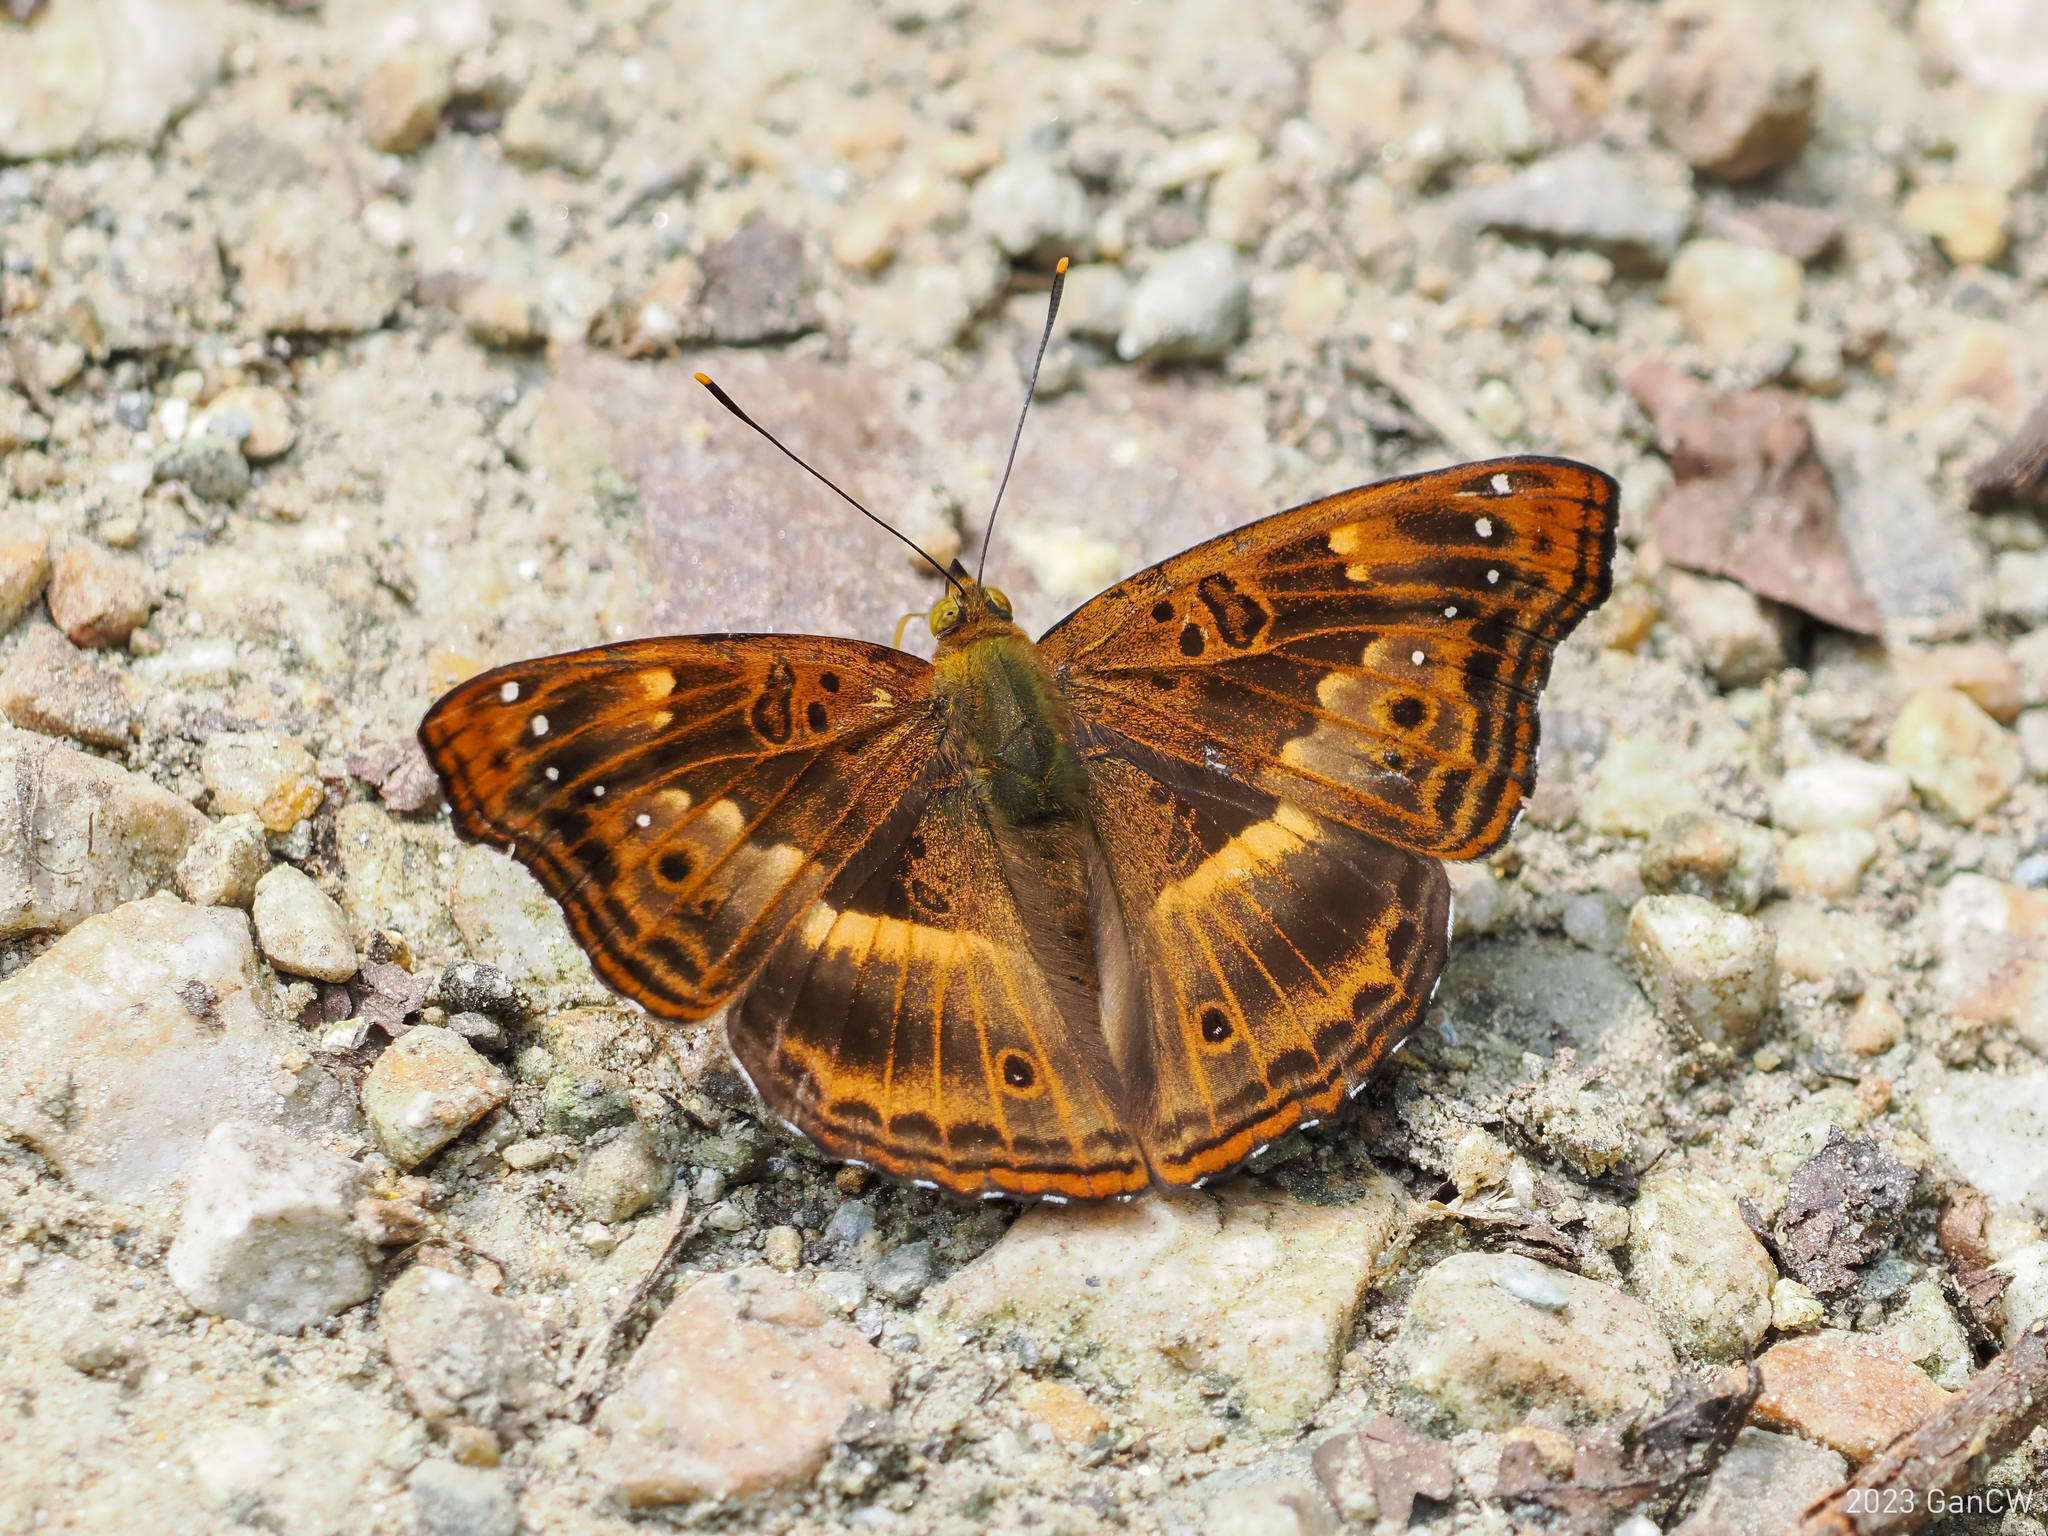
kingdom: Animalia
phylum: Arthropoda
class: Insecta
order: Lepidoptera
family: Nymphalidae
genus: Apatura
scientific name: Apatura Rohana spec
